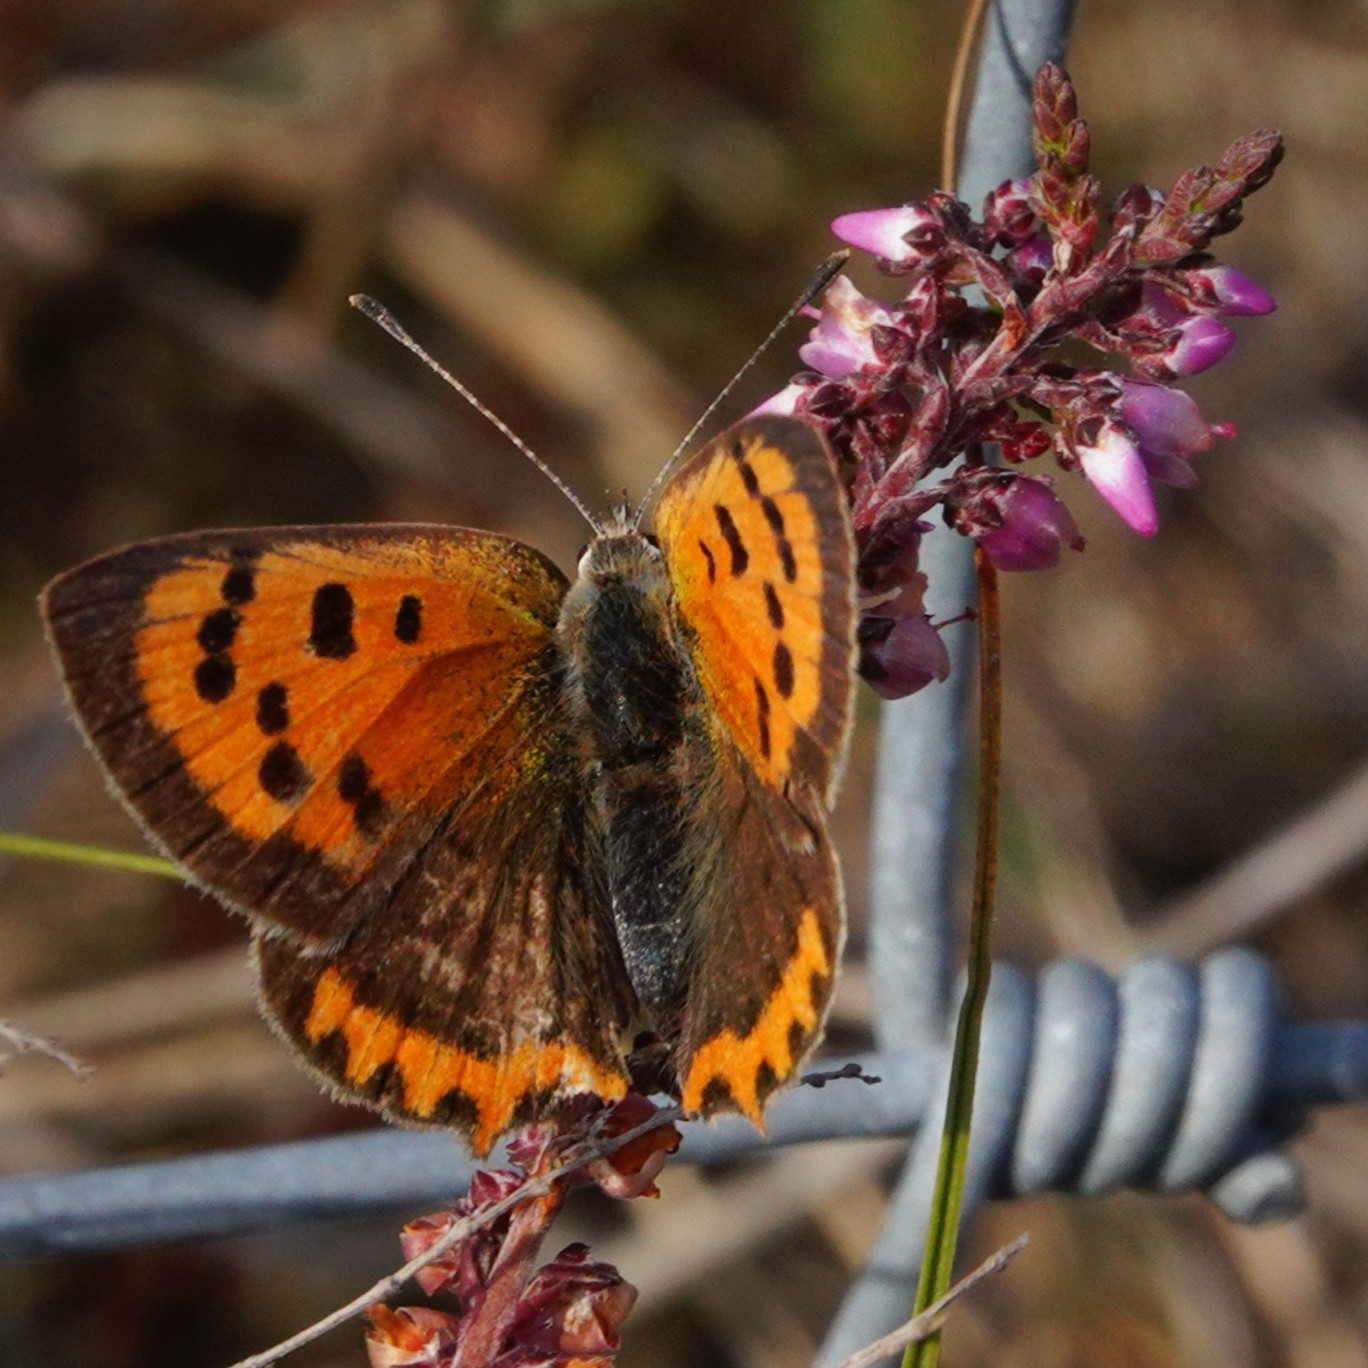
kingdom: Animalia
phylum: Arthropoda
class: Insecta
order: Lepidoptera
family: Lycaenidae
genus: Lycaena
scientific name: Lycaena phlaeas
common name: Small copper
